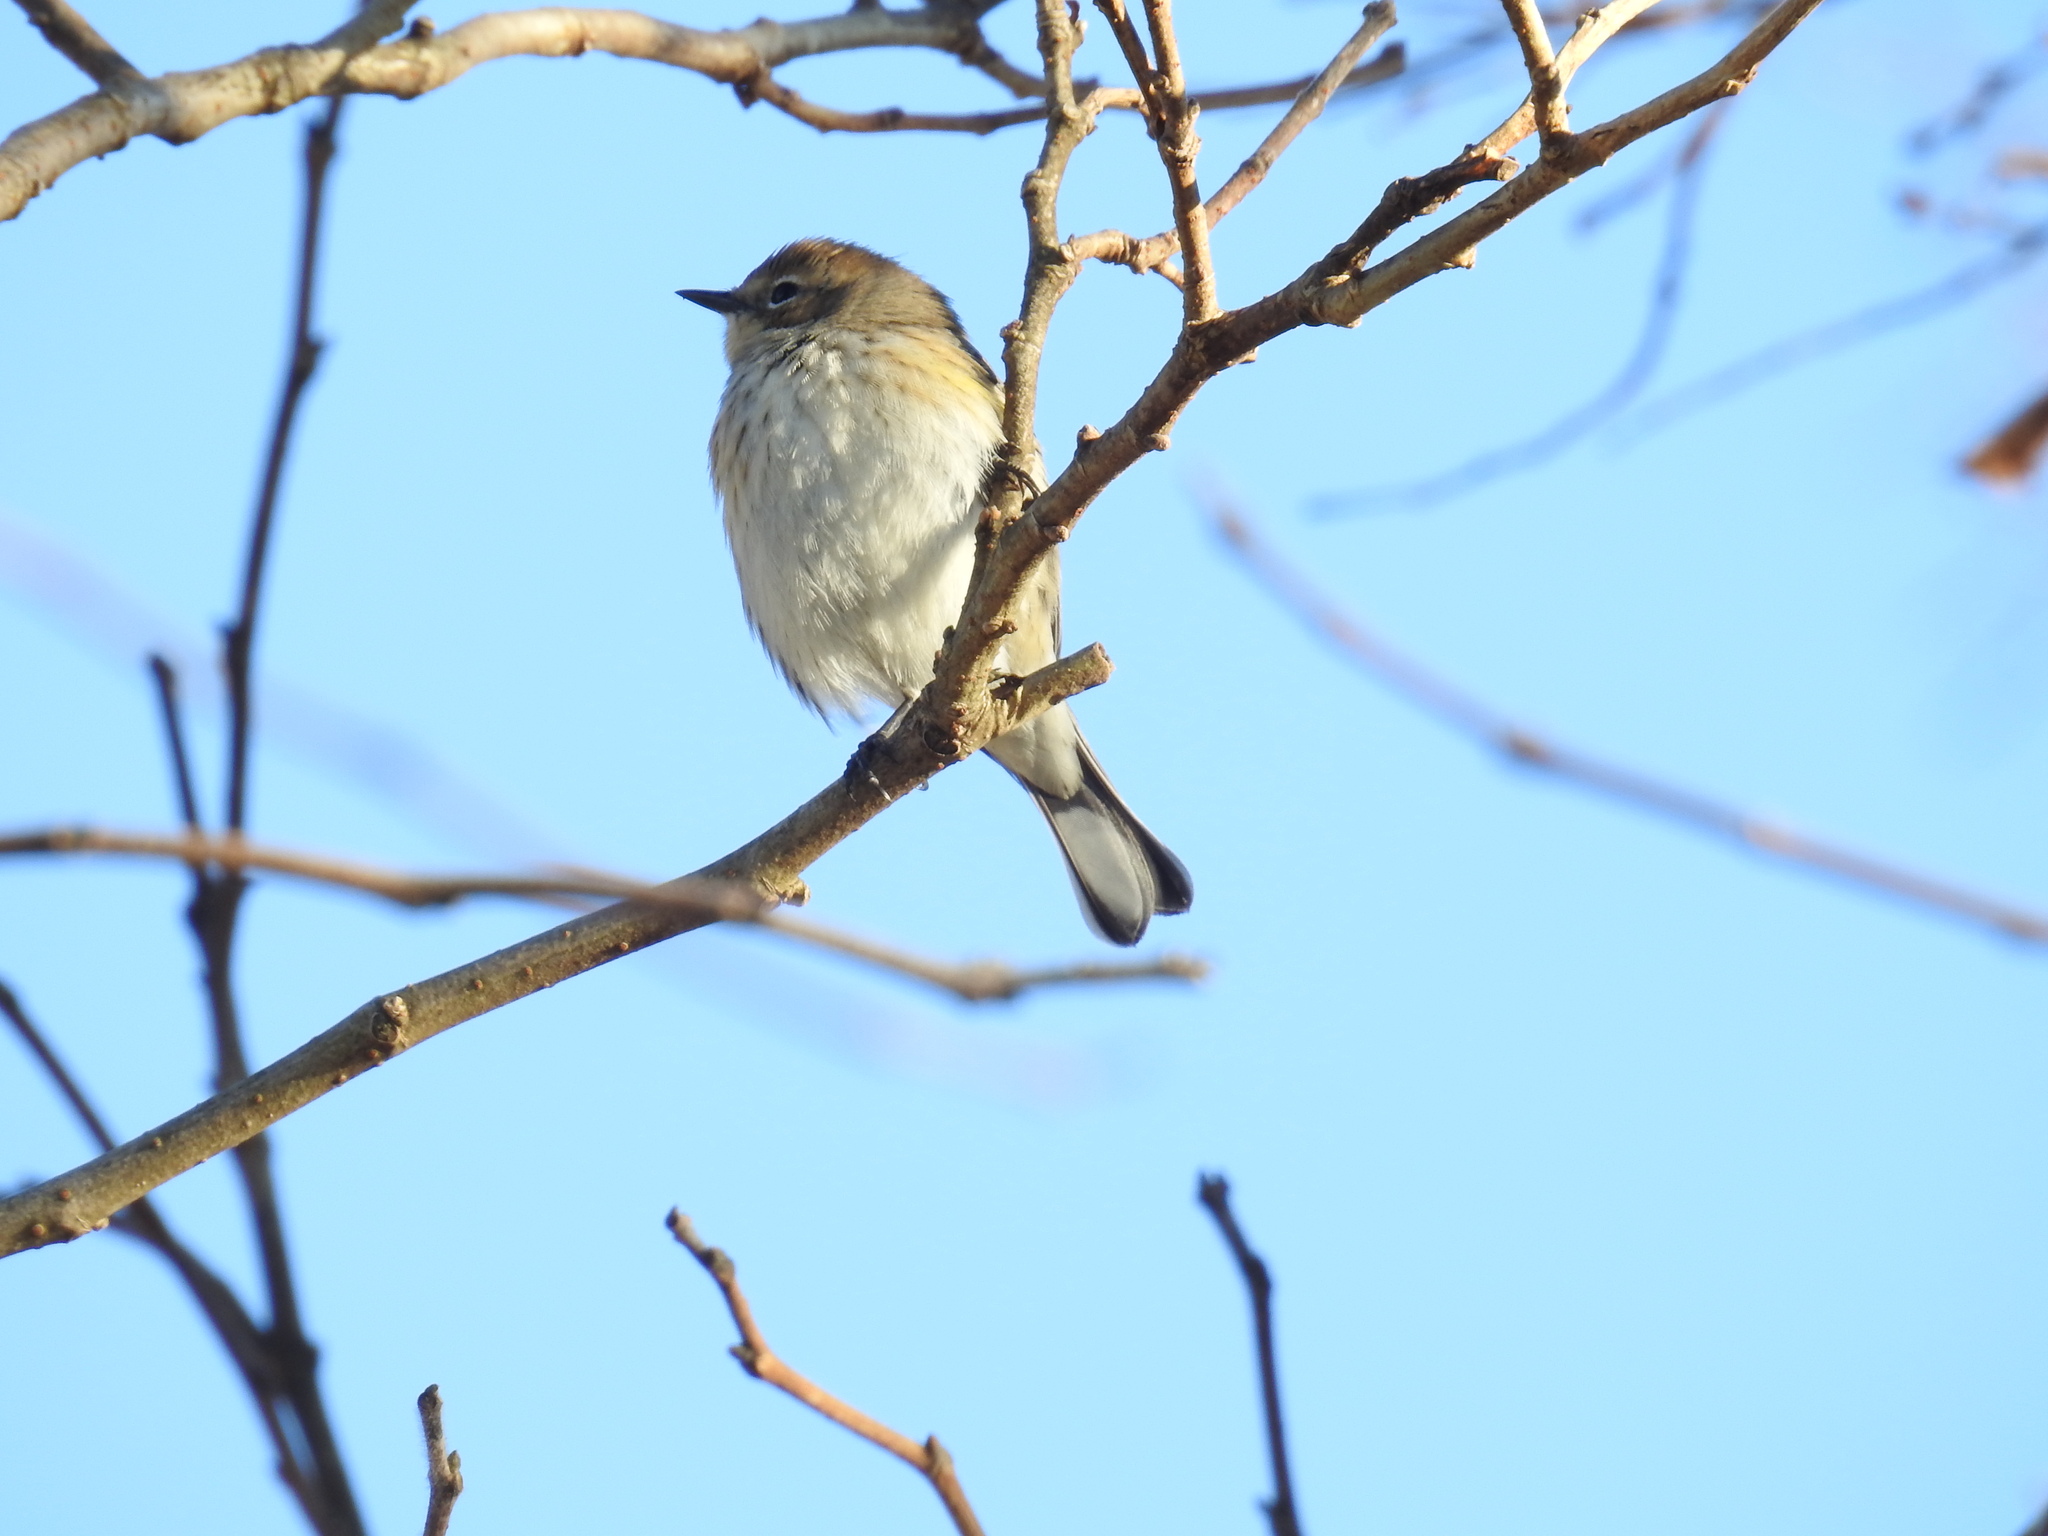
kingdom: Animalia
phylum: Chordata
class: Aves
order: Passeriformes
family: Parulidae
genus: Setophaga
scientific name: Setophaga coronata
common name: Myrtle warbler
